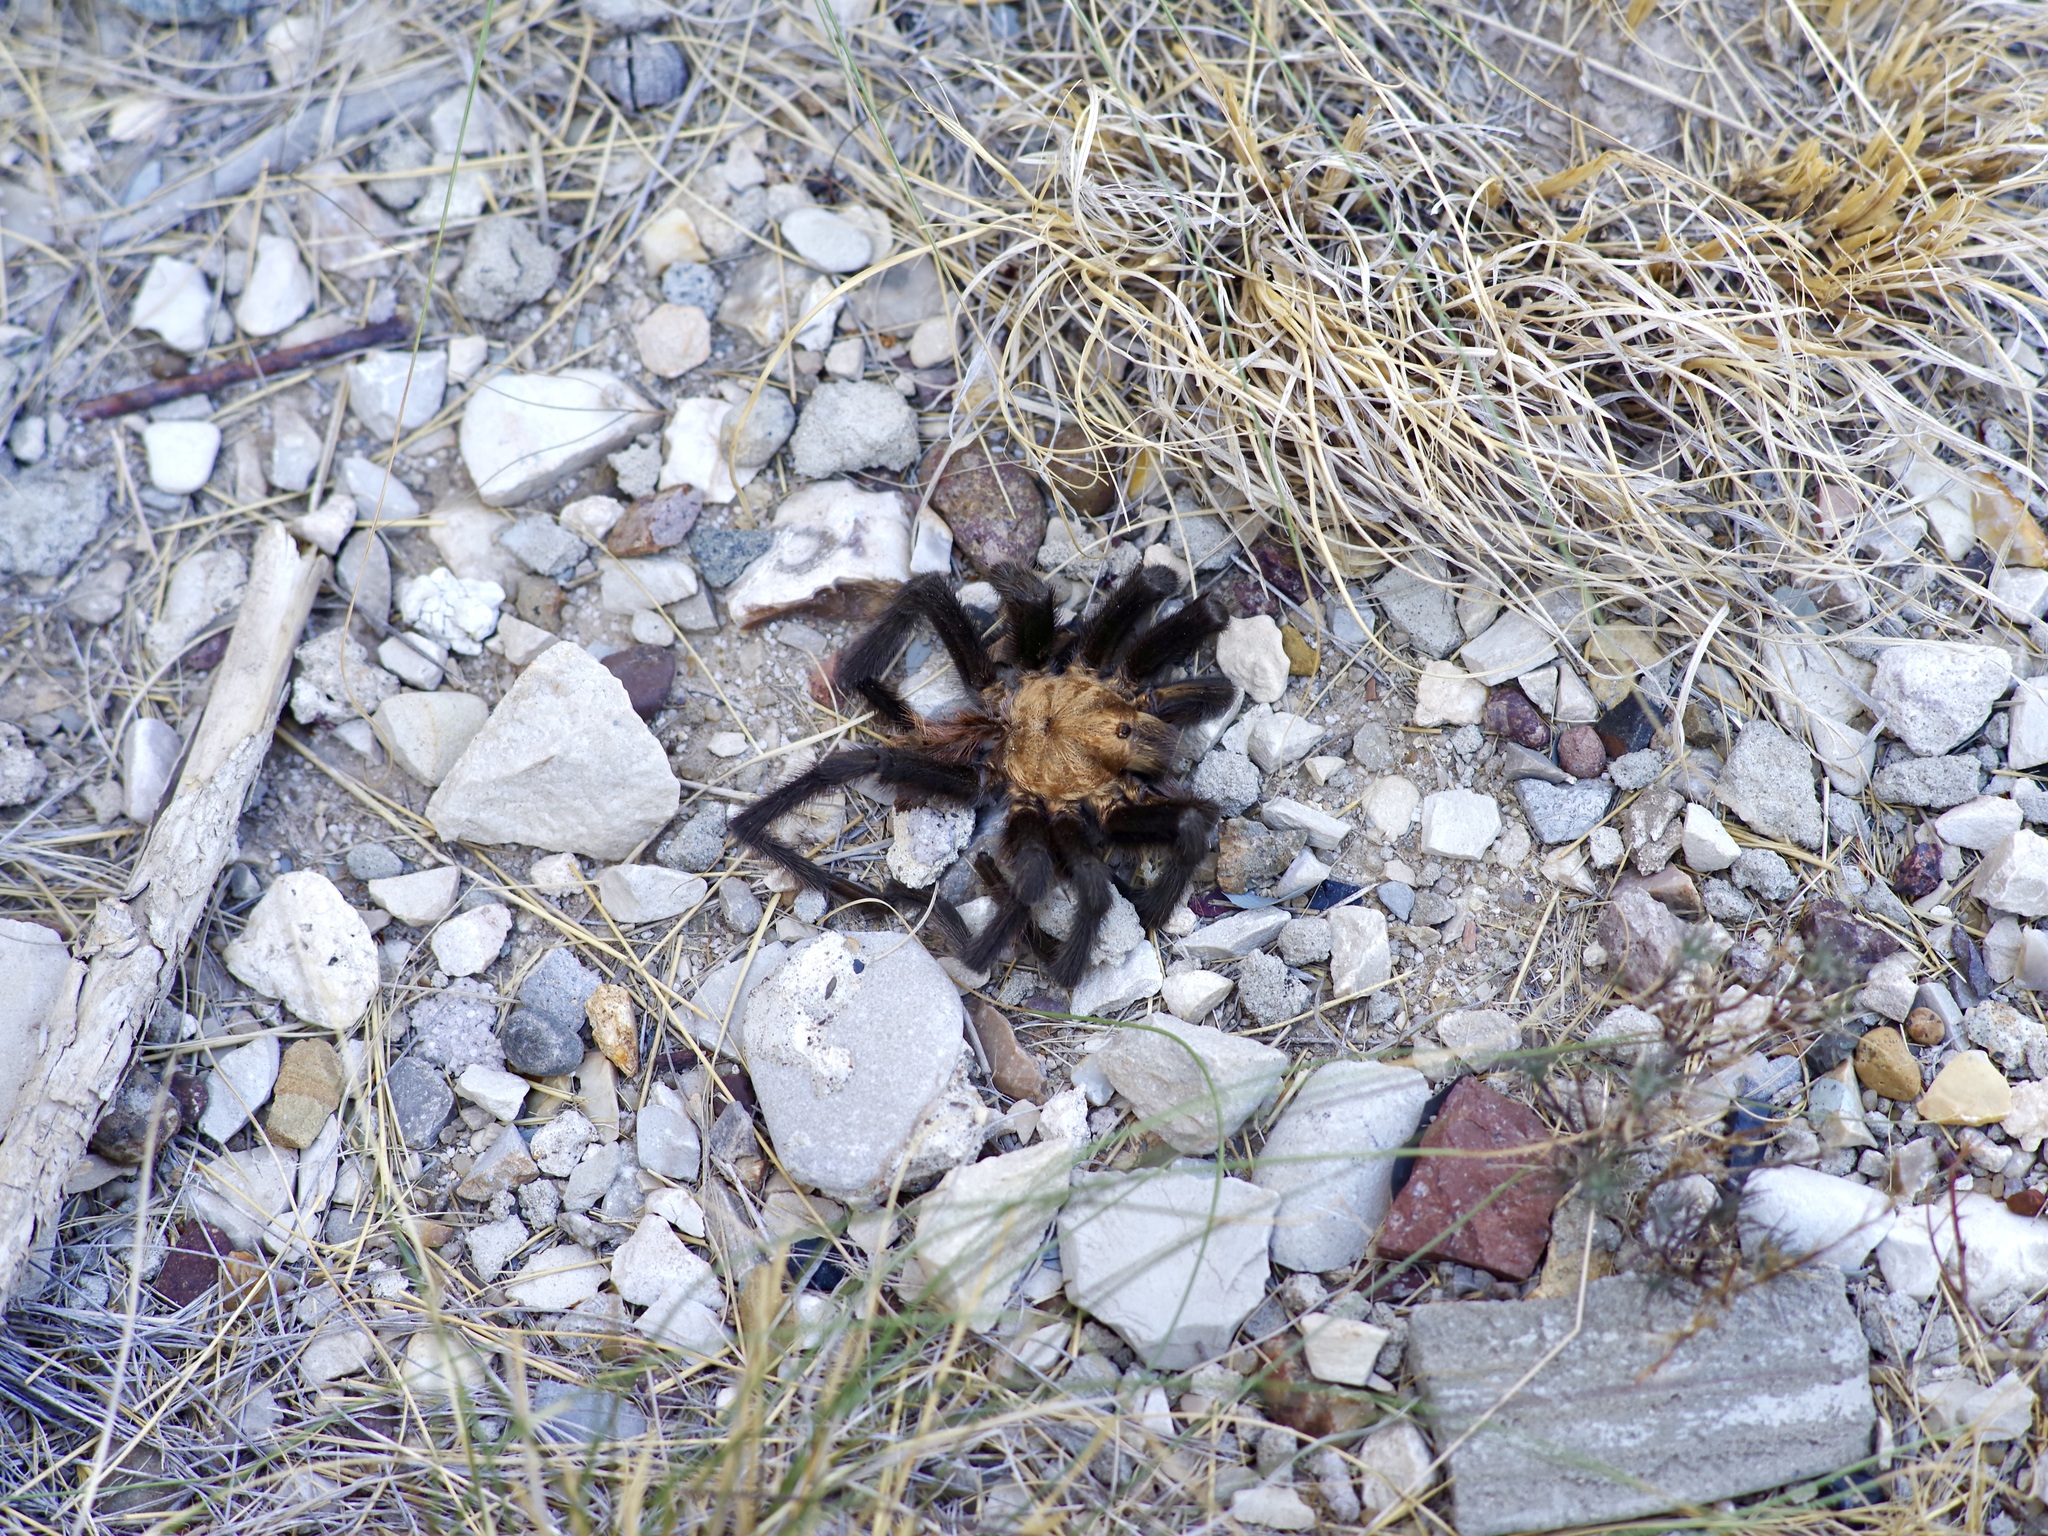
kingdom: Animalia
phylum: Arthropoda
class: Arachnida
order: Araneae
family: Theraphosidae
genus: Aphonopelma
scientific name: Aphonopelma hentzi
